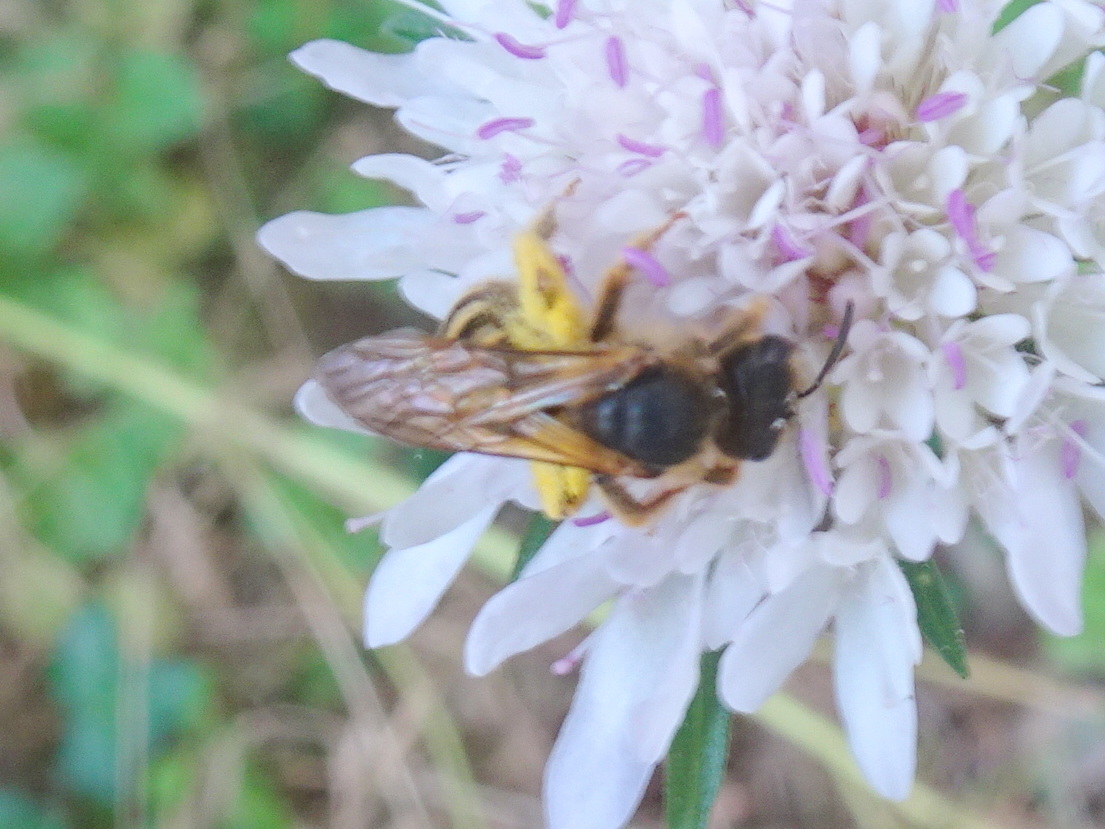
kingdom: Animalia
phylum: Arthropoda
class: Insecta
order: Hymenoptera
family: Halictidae
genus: Halictus
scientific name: Halictus scabiosae
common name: Great banded furrow bee
